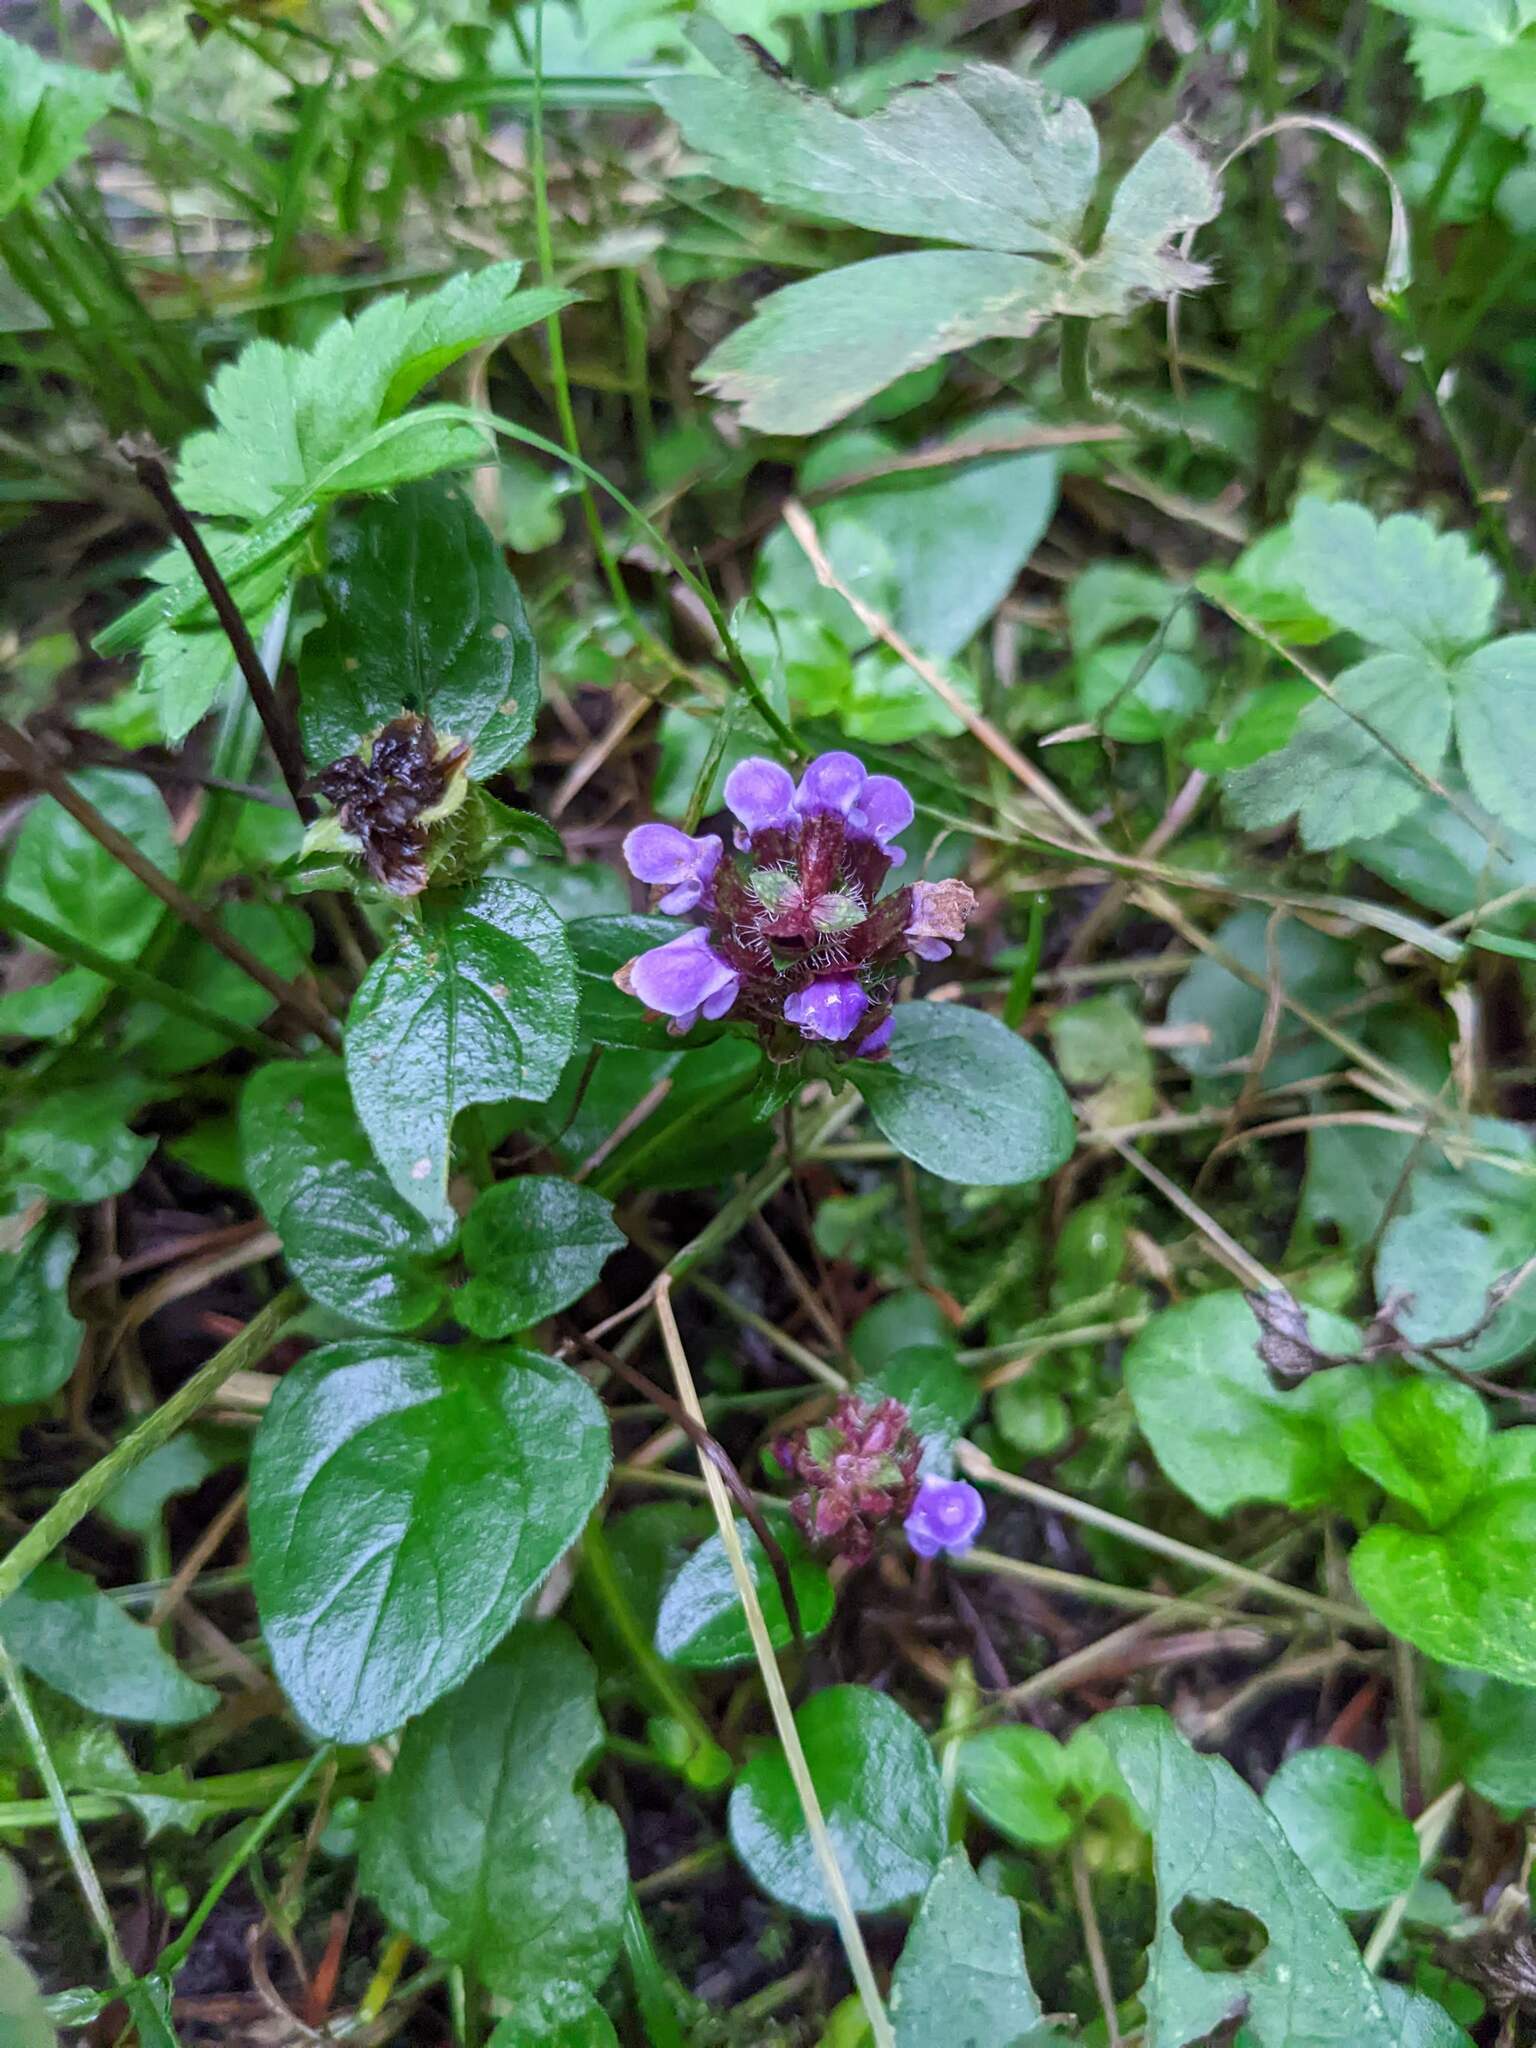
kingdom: Plantae
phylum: Tracheophyta
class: Magnoliopsida
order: Lamiales
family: Lamiaceae
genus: Prunella
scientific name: Prunella vulgaris
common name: Heal-all
